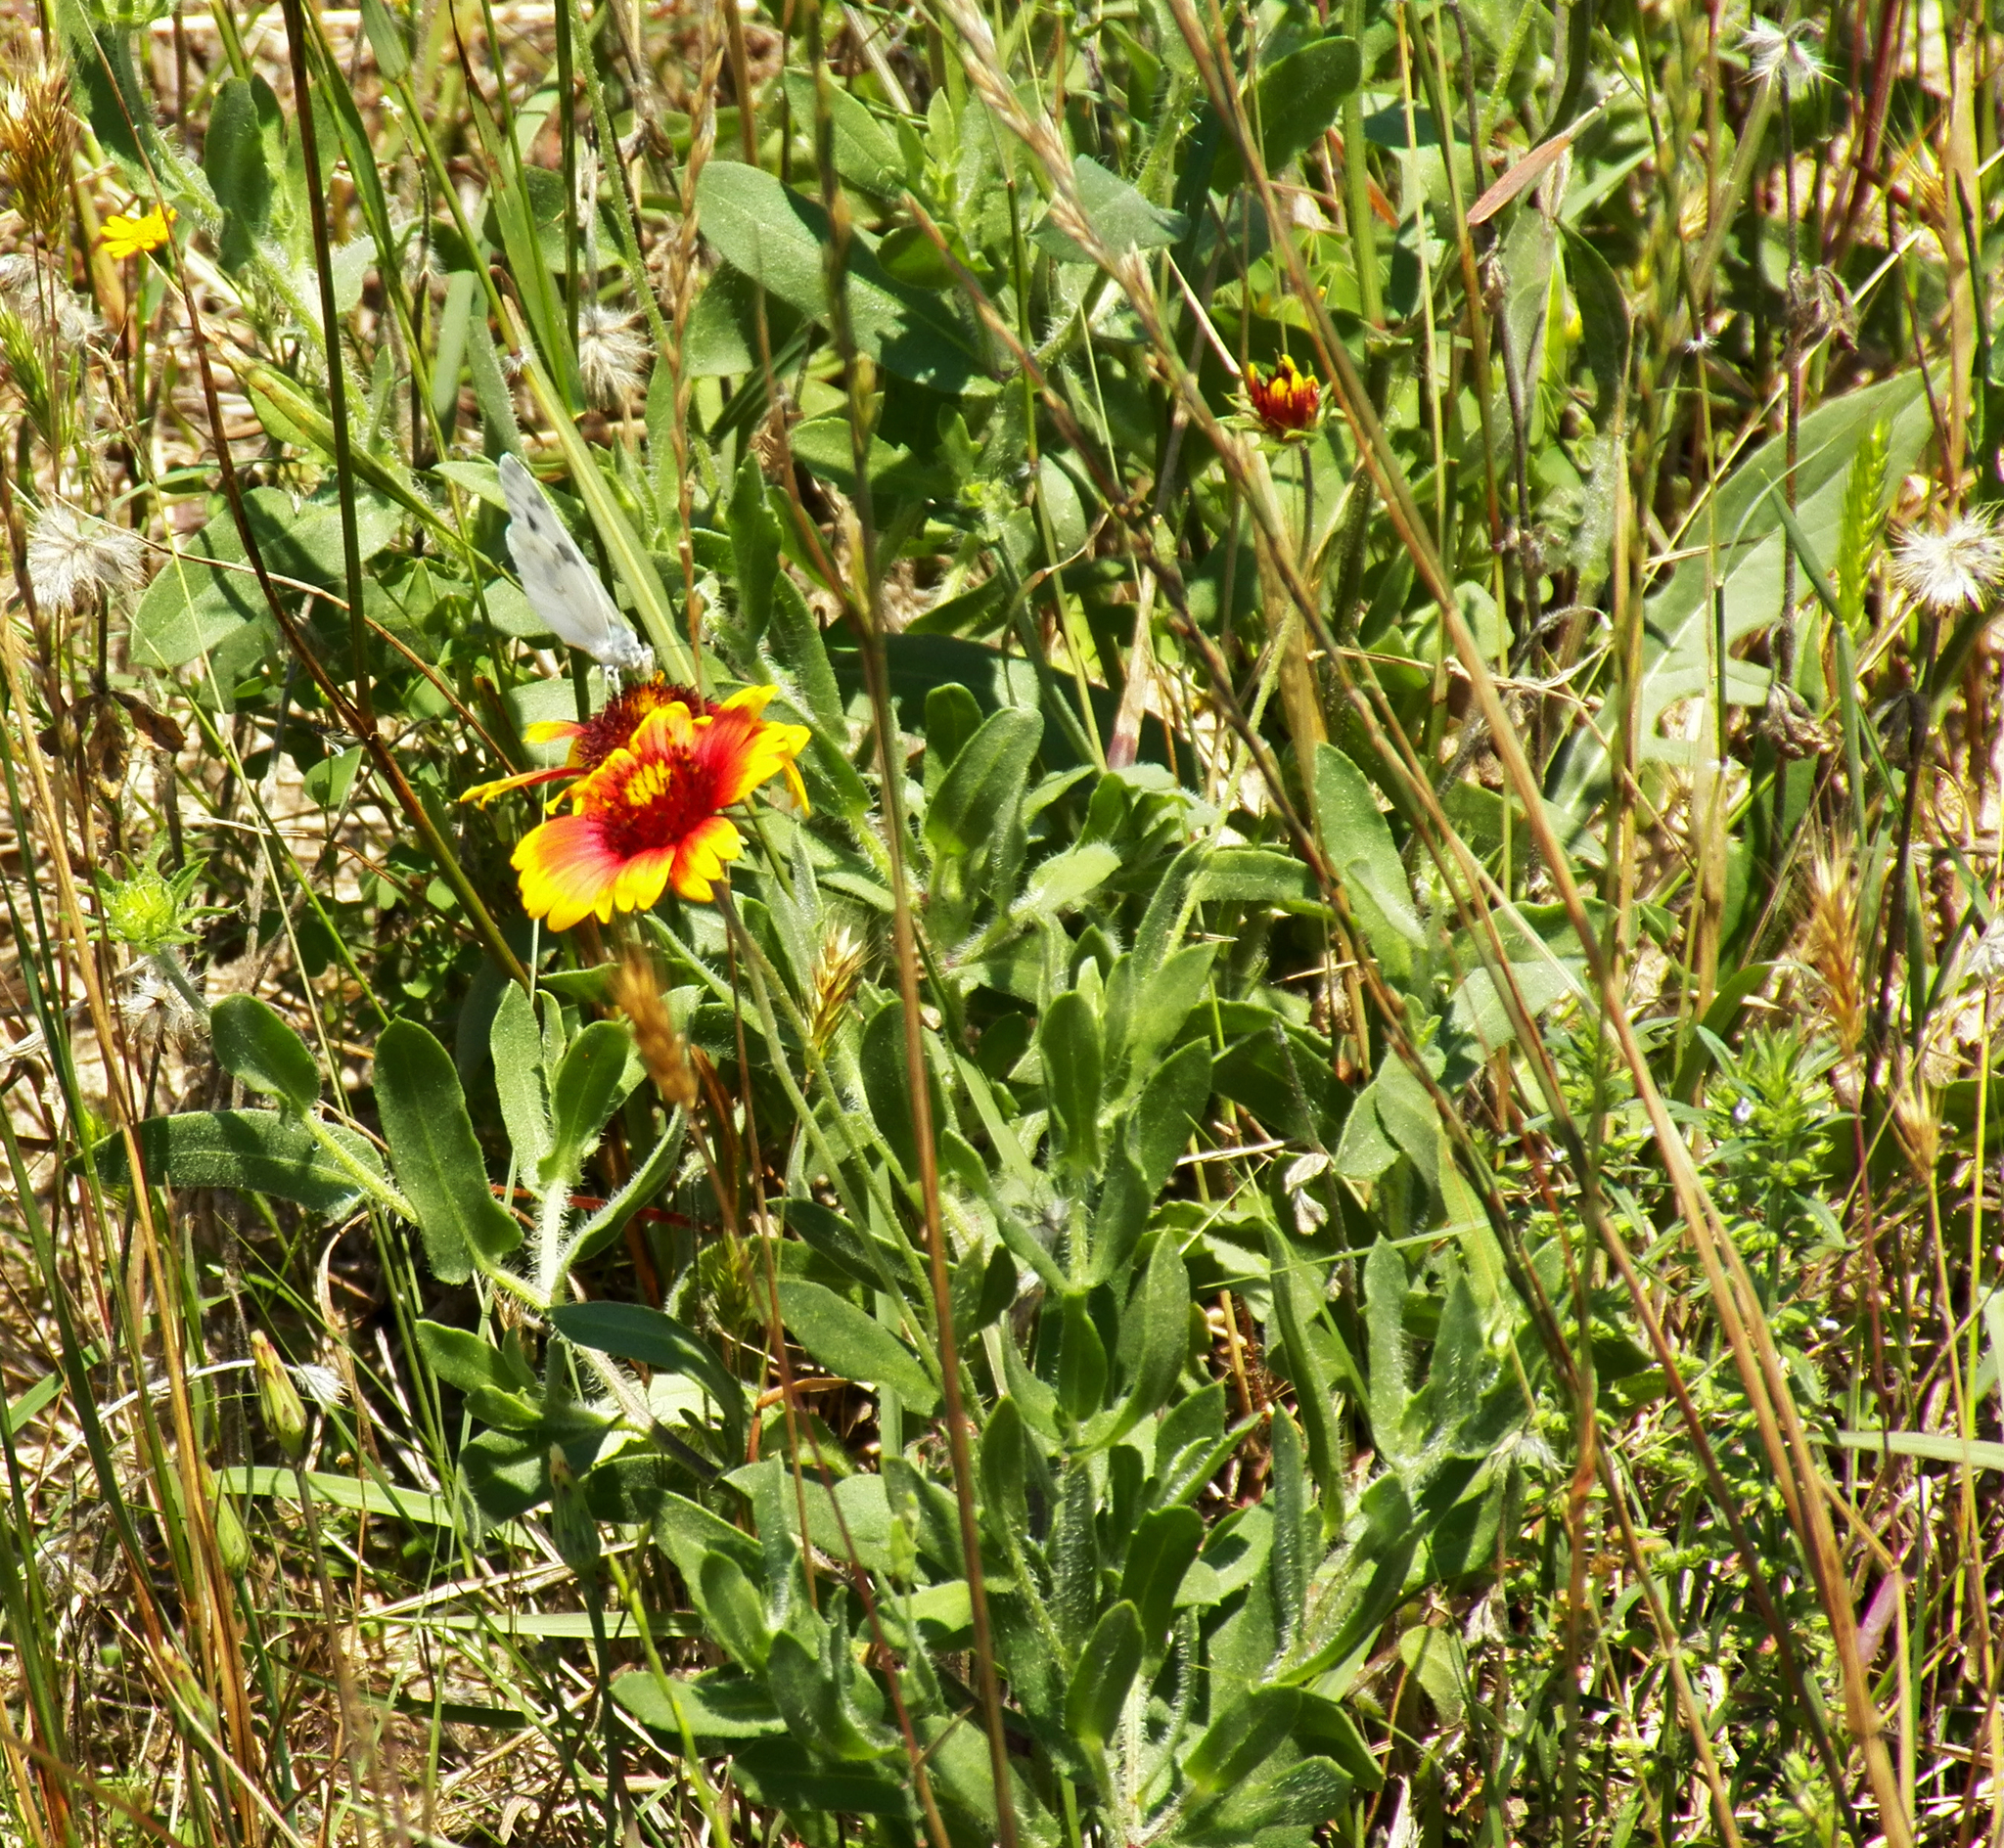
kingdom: Plantae
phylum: Tracheophyta
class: Magnoliopsida
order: Asterales
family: Asteraceae
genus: Gaillardia
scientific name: Gaillardia pulchella
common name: Firewheel
